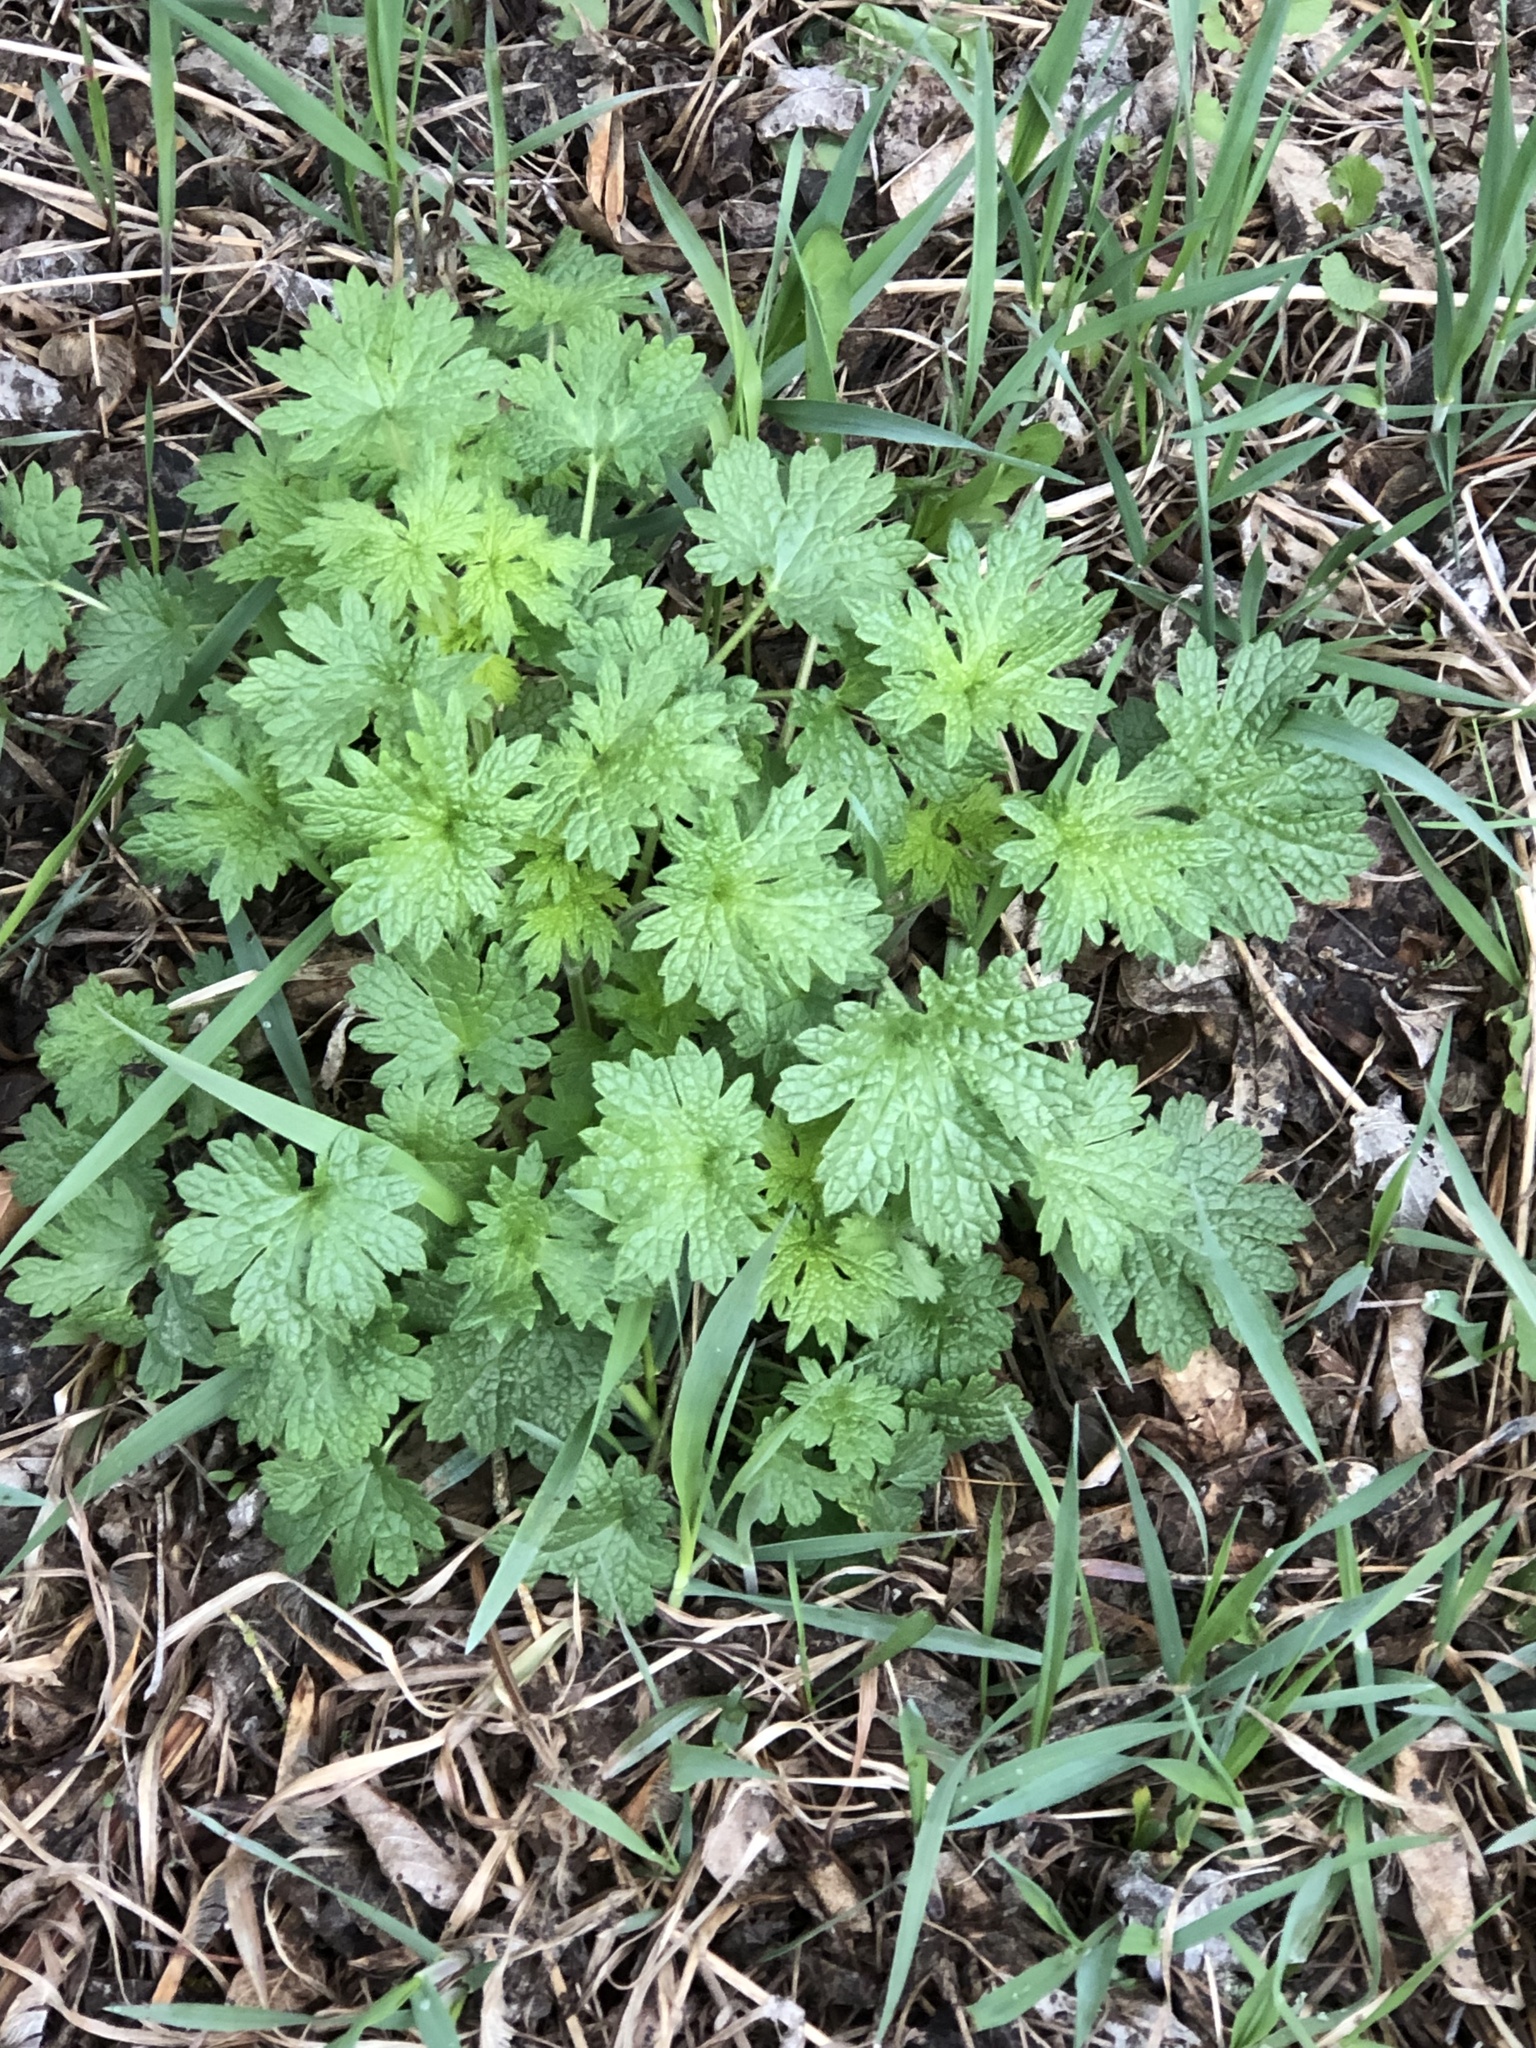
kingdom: Plantae
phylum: Tracheophyta
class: Magnoliopsida
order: Lamiales
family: Lamiaceae
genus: Leonurus
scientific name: Leonurus cardiaca
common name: Motherwort
